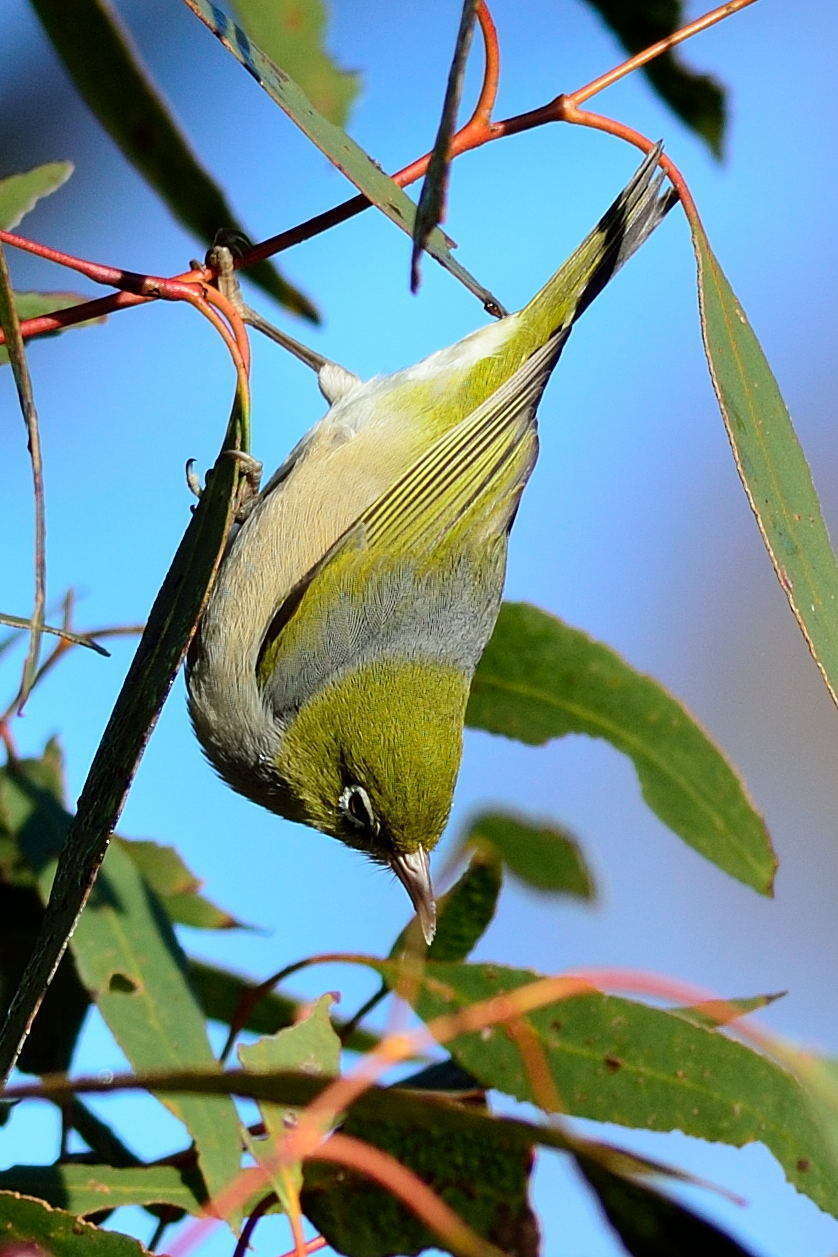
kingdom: Animalia
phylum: Chordata
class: Aves
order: Passeriformes
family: Zosteropidae
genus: Zosterops
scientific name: Zosterops lateralis
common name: Silvereye
